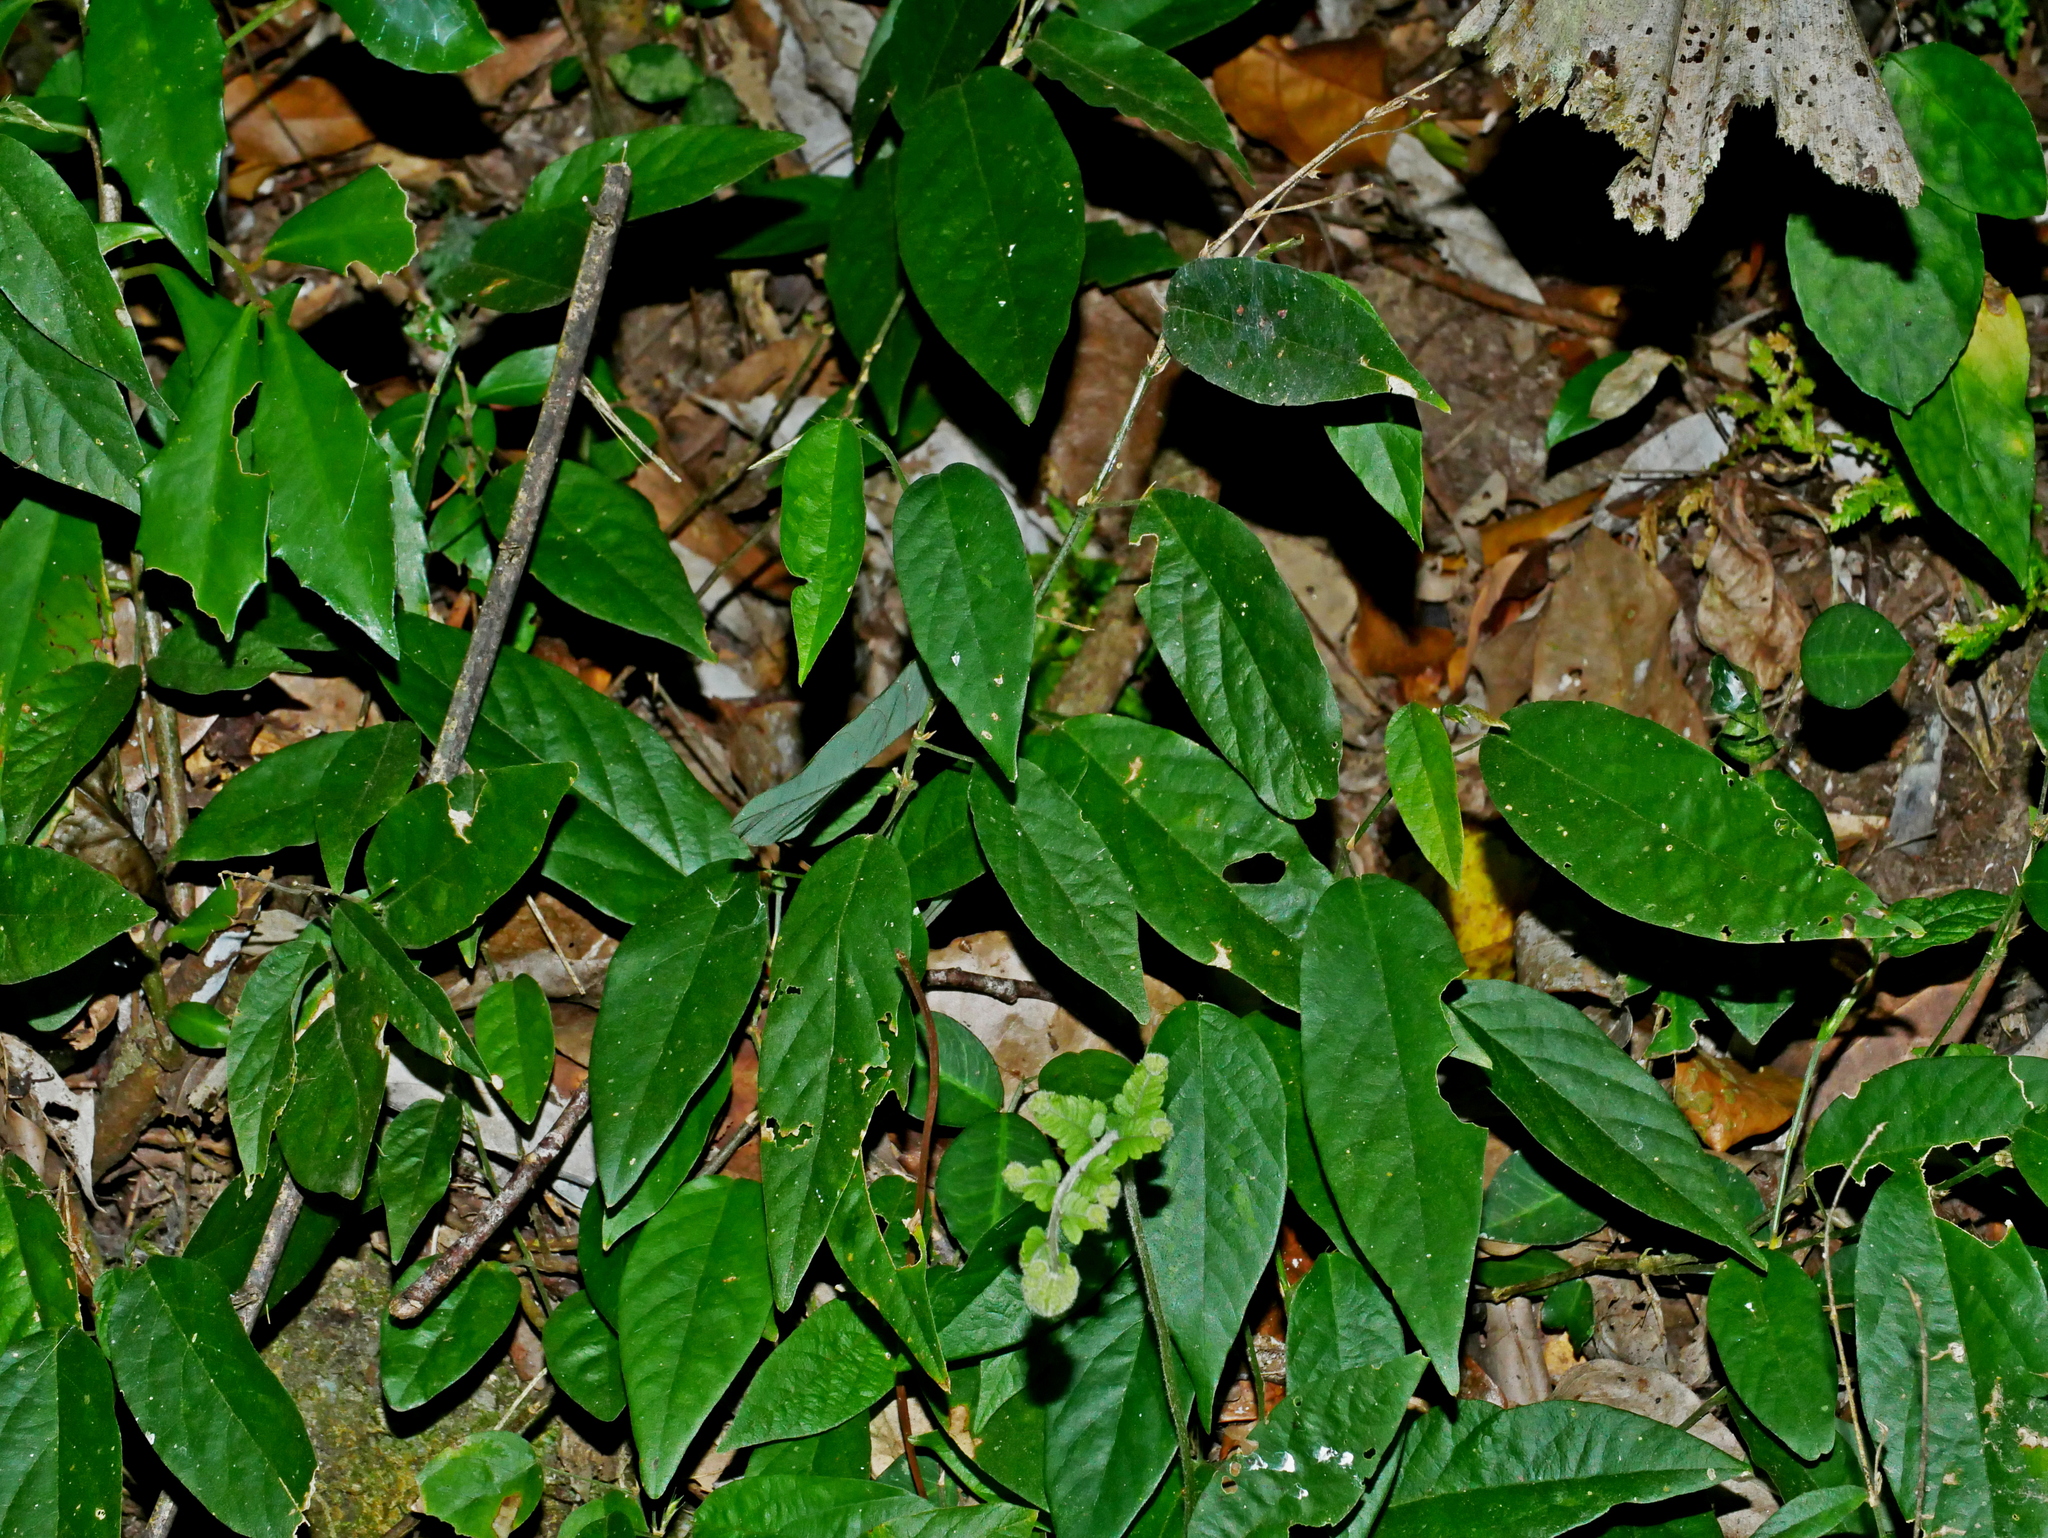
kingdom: Plantae
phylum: Tracheophyta
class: Magnoliopsida
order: Fabales
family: Fabaceae
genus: Sohmaea
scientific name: Sohmaea zonata
